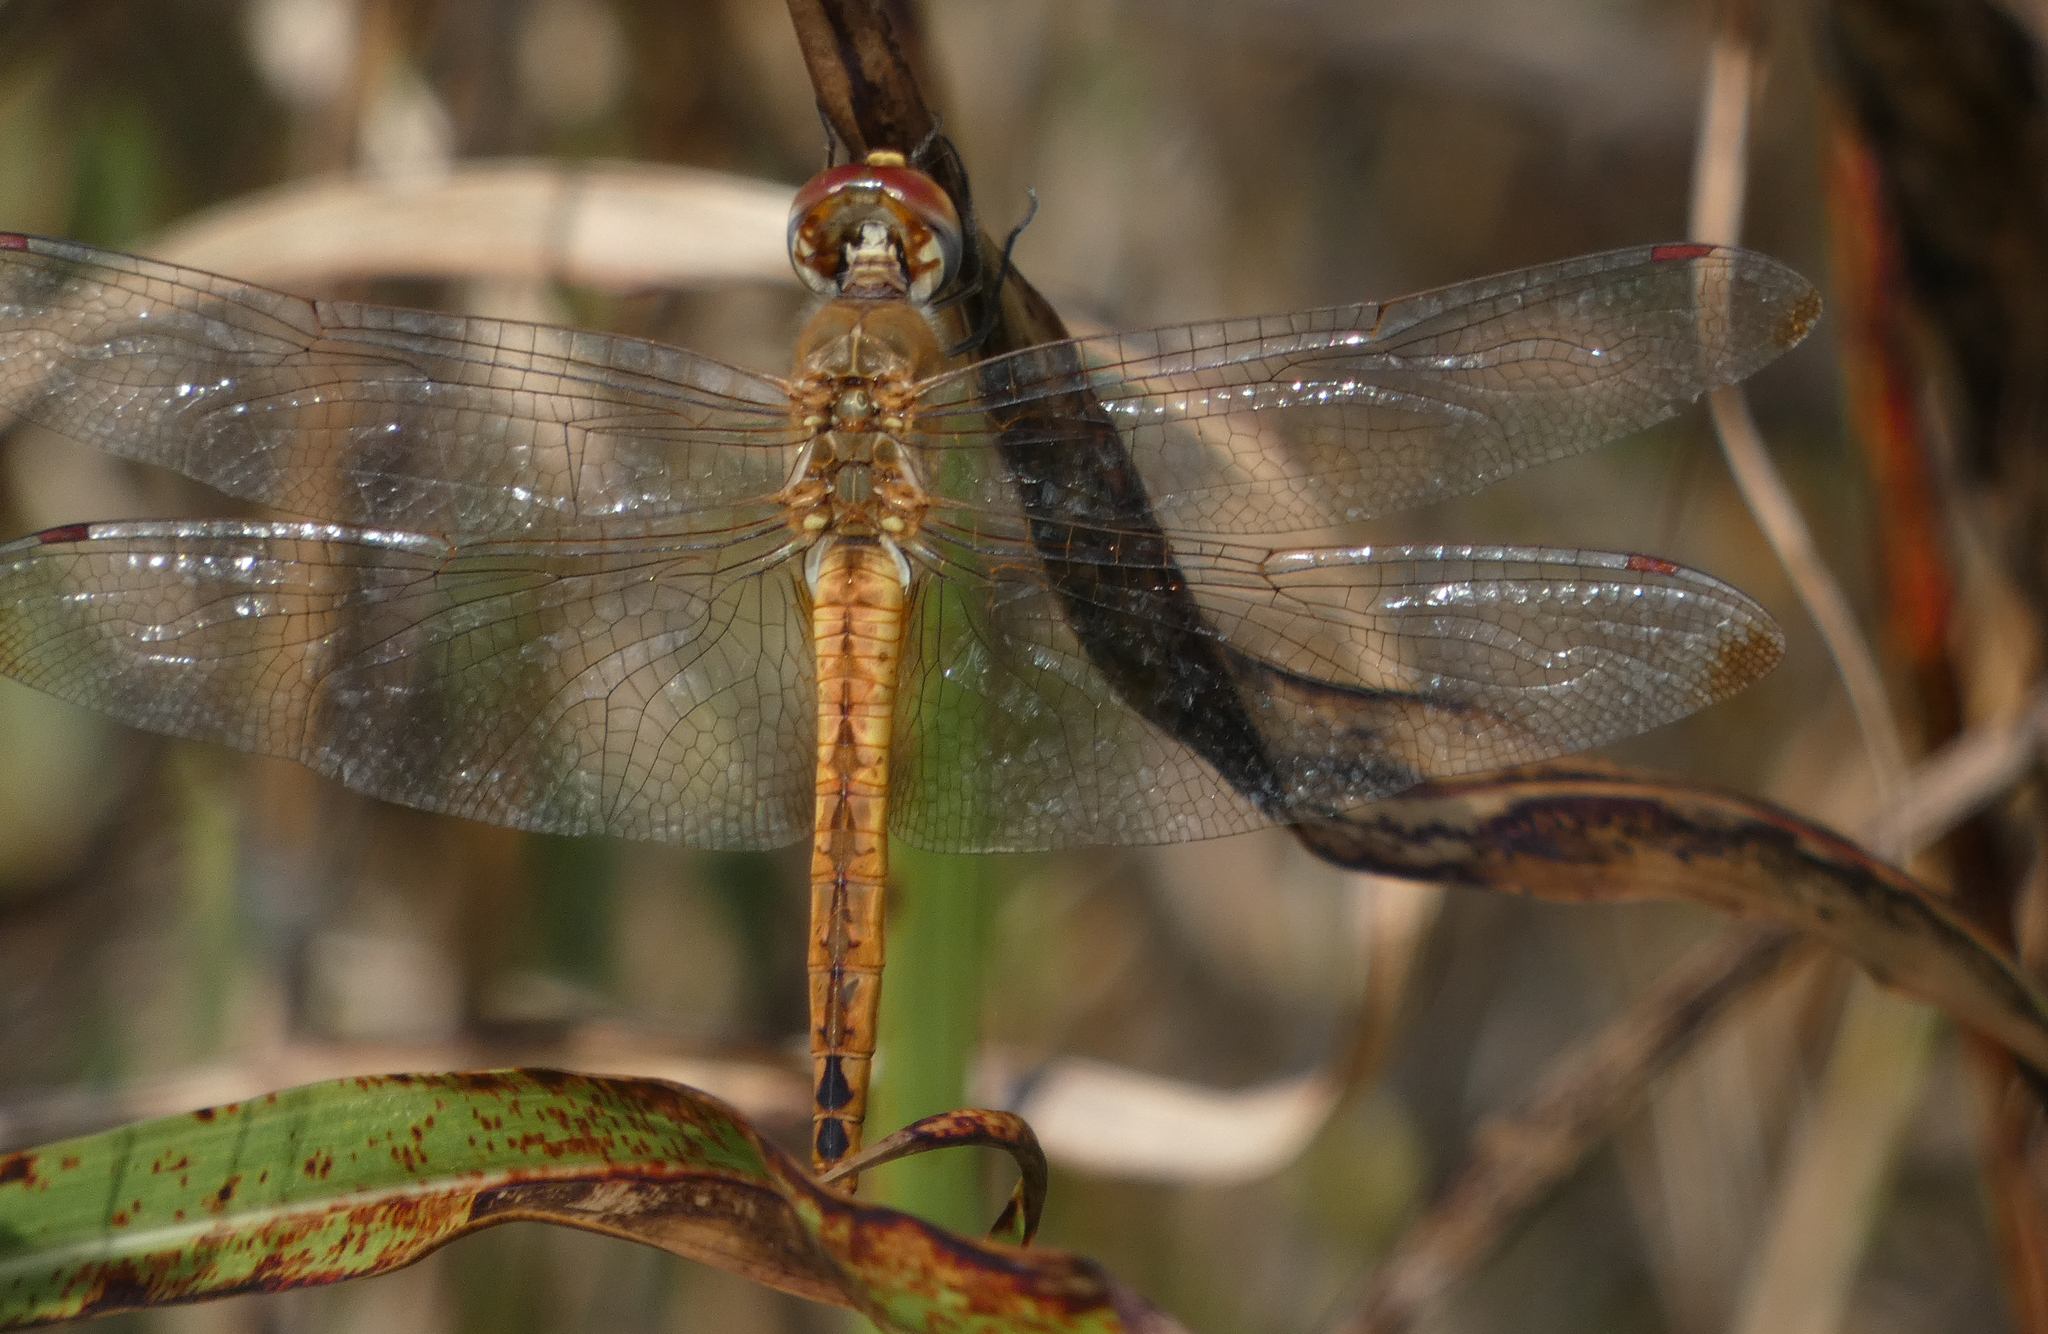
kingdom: Animalia
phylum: Arthropoda
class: Insecta
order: Odonata
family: Libellulidae
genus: Pantala
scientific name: Pantala flavescens
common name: Wandering glider
